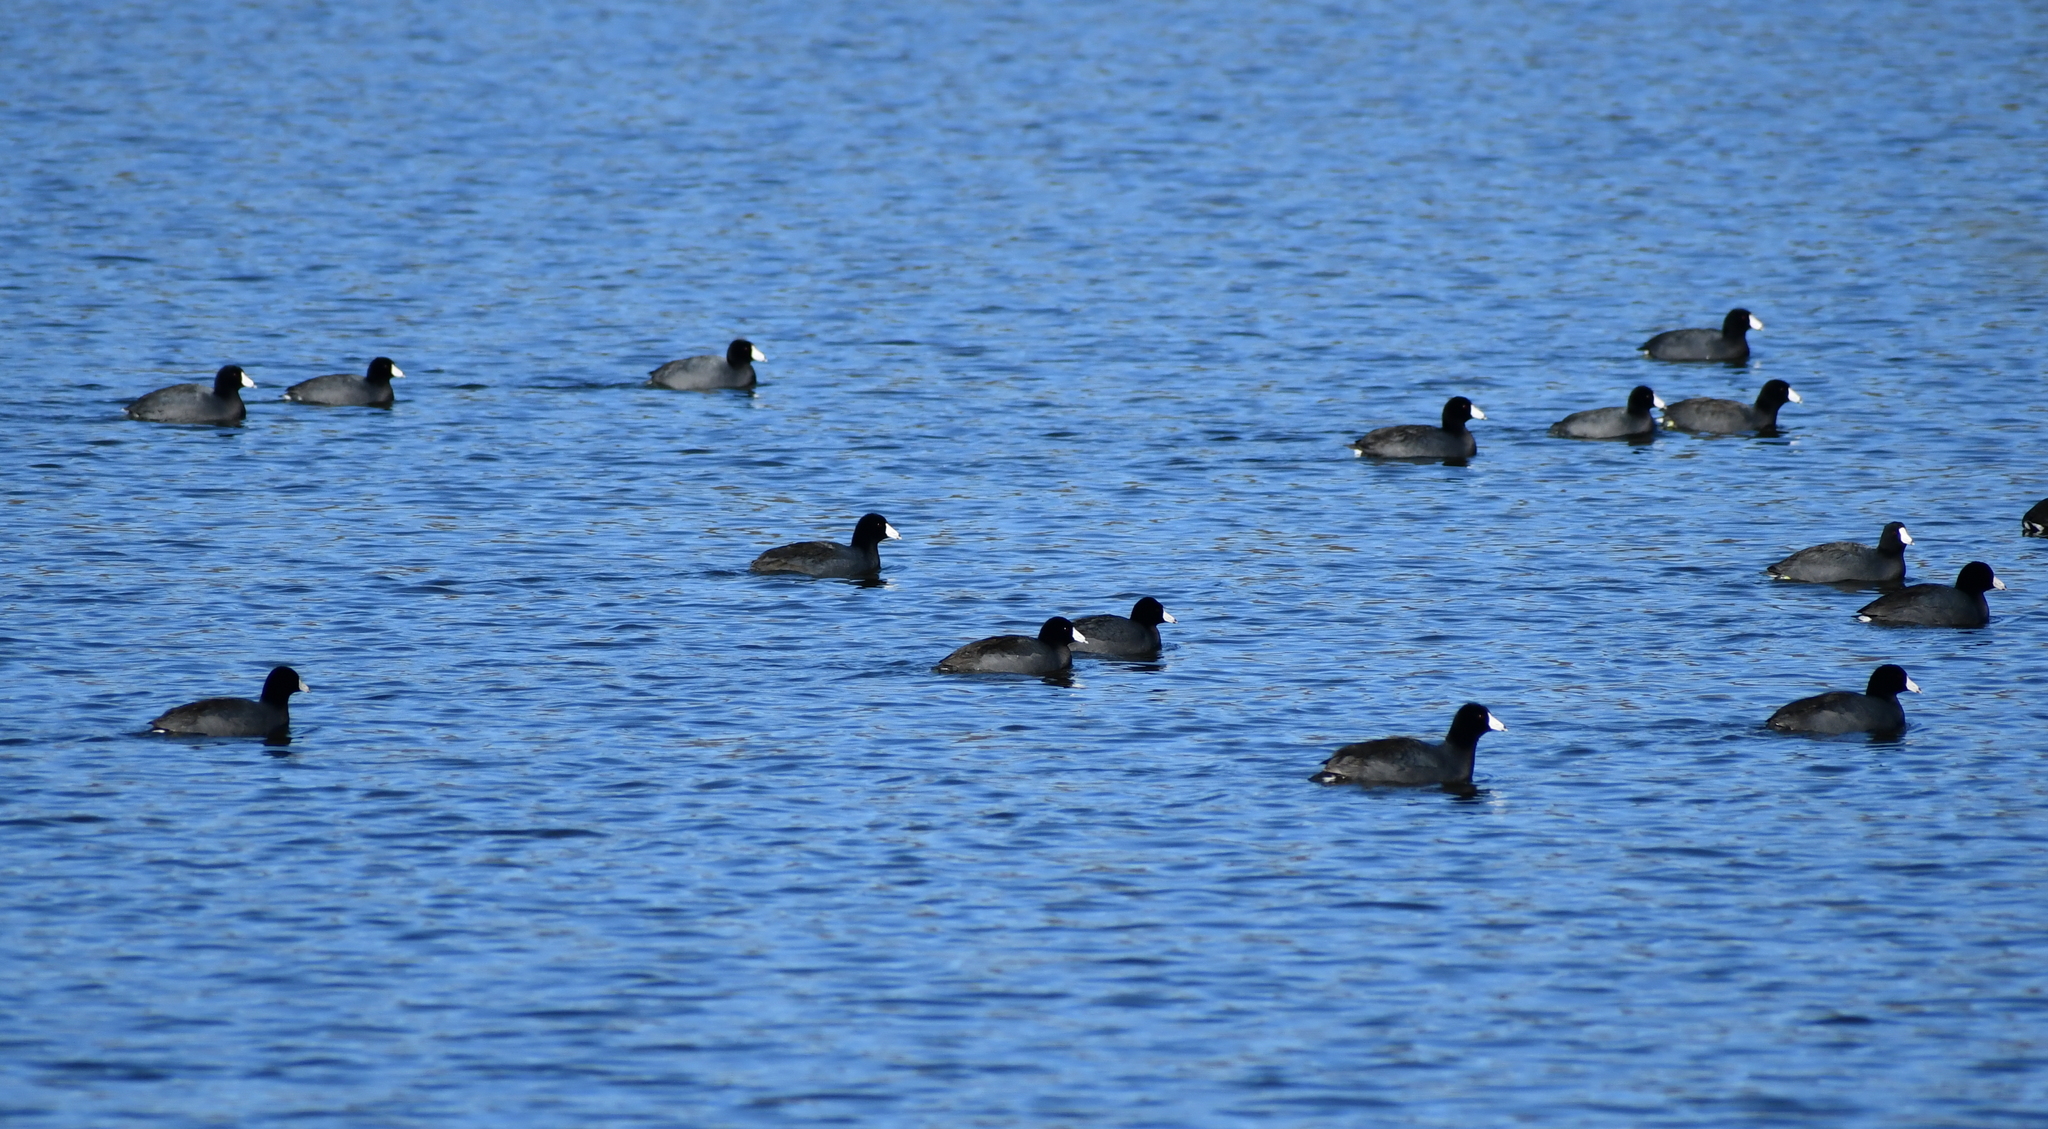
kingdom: Animalia
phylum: Chordata
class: Aves
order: Gruiformes
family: Rallidae
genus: Fulica
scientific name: Fulica americana
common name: American coot
